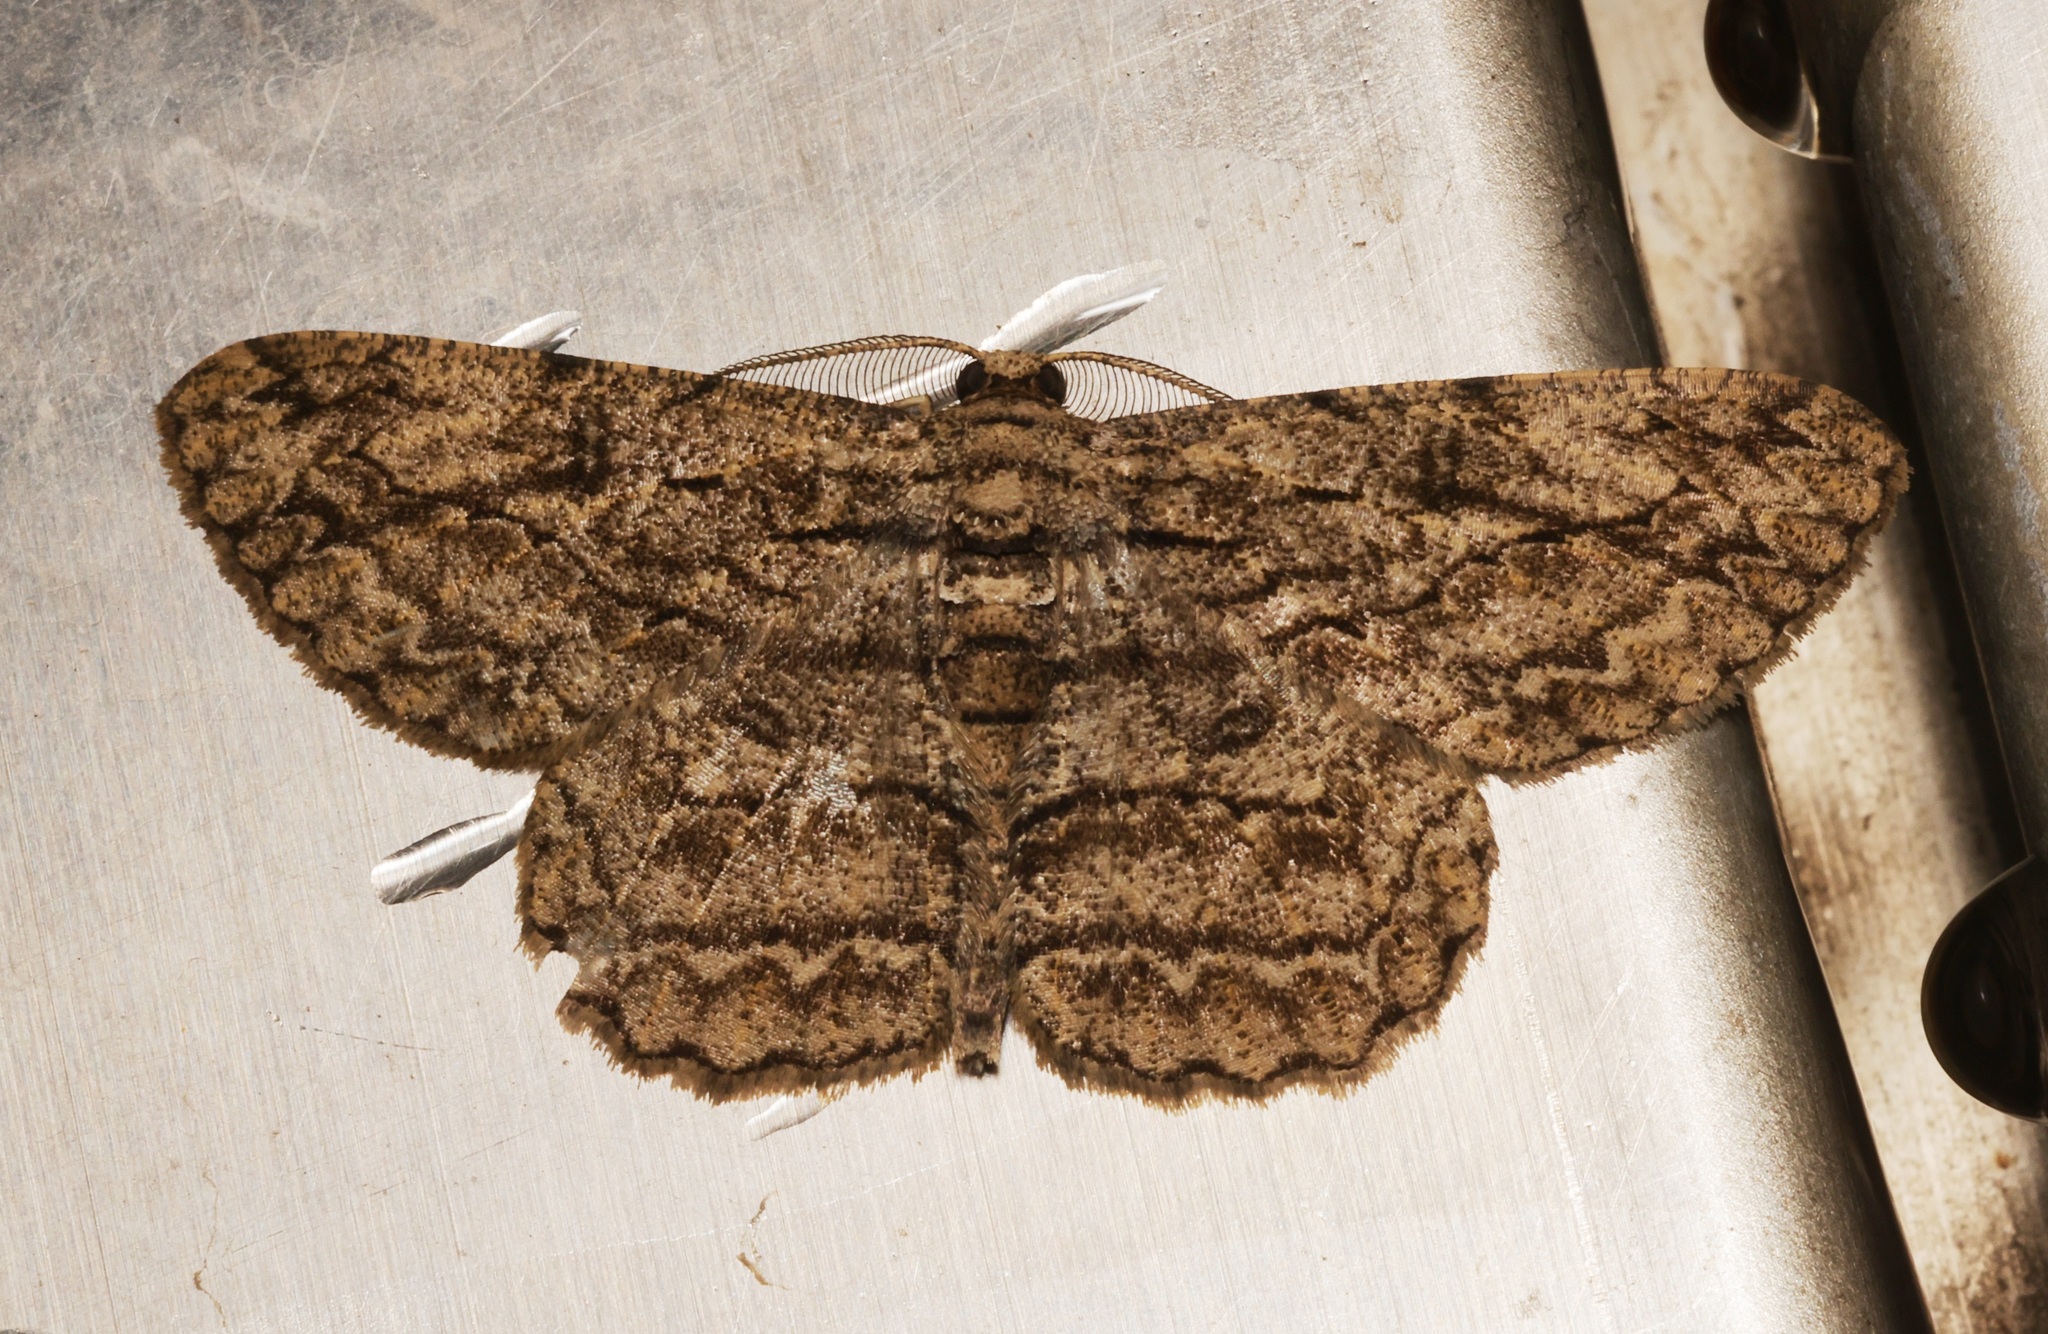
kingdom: Animalia
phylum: Arthropoda
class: Insecta
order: Lepidoptera
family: Geometridae
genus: Hypomecis
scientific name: Hypomecis transcissa
